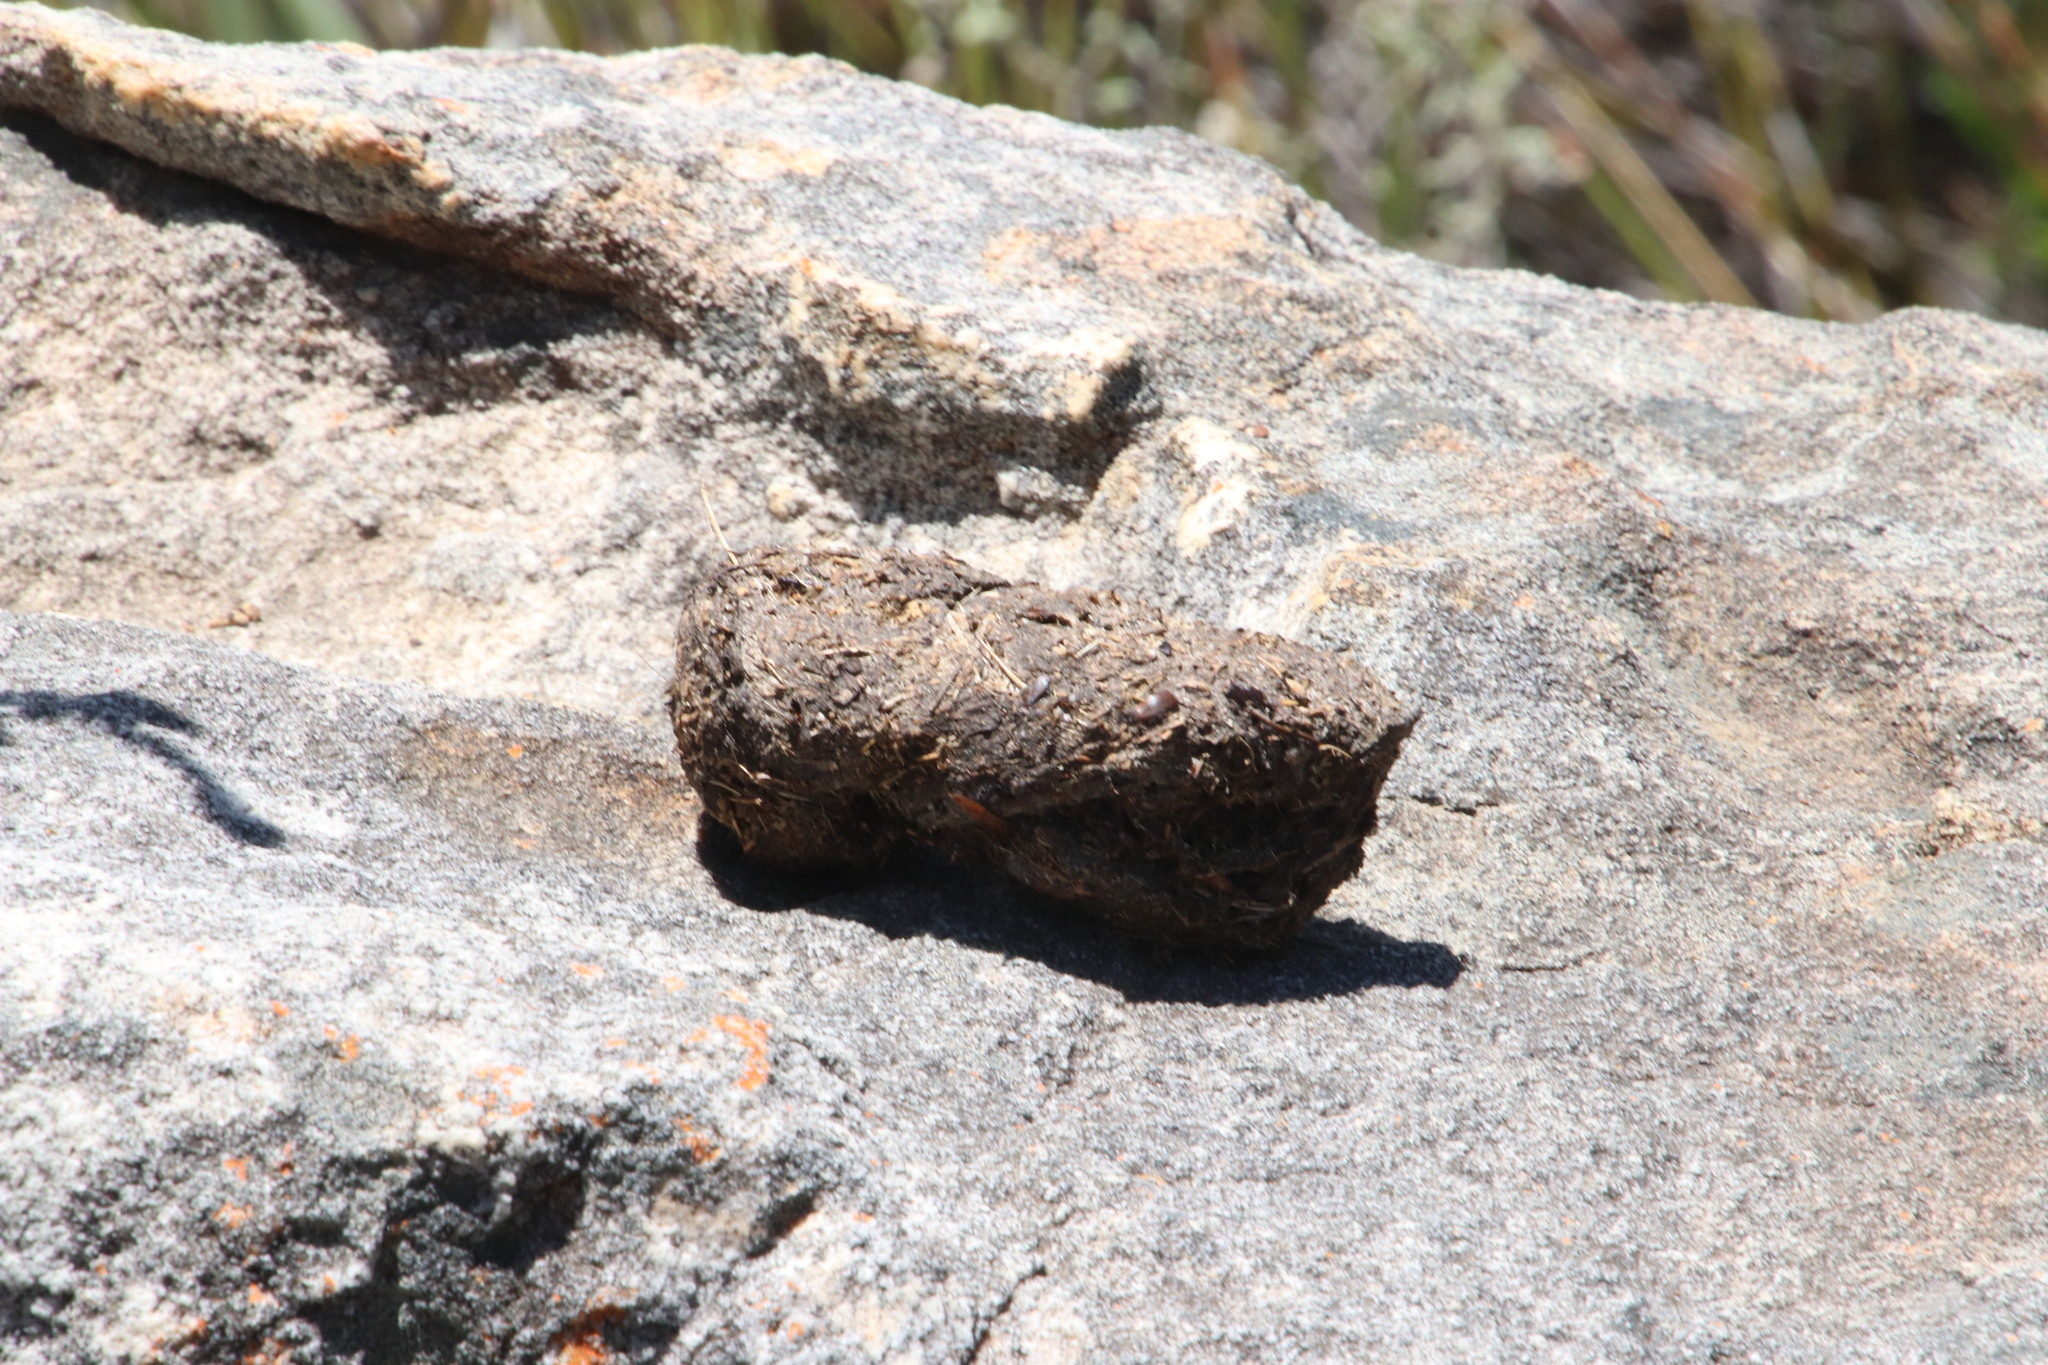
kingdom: Animalia
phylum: Chordata
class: Mammalia
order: Primates
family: Cercopithecidae
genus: Papio
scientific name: Papio ursinus
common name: Chacma baboon
